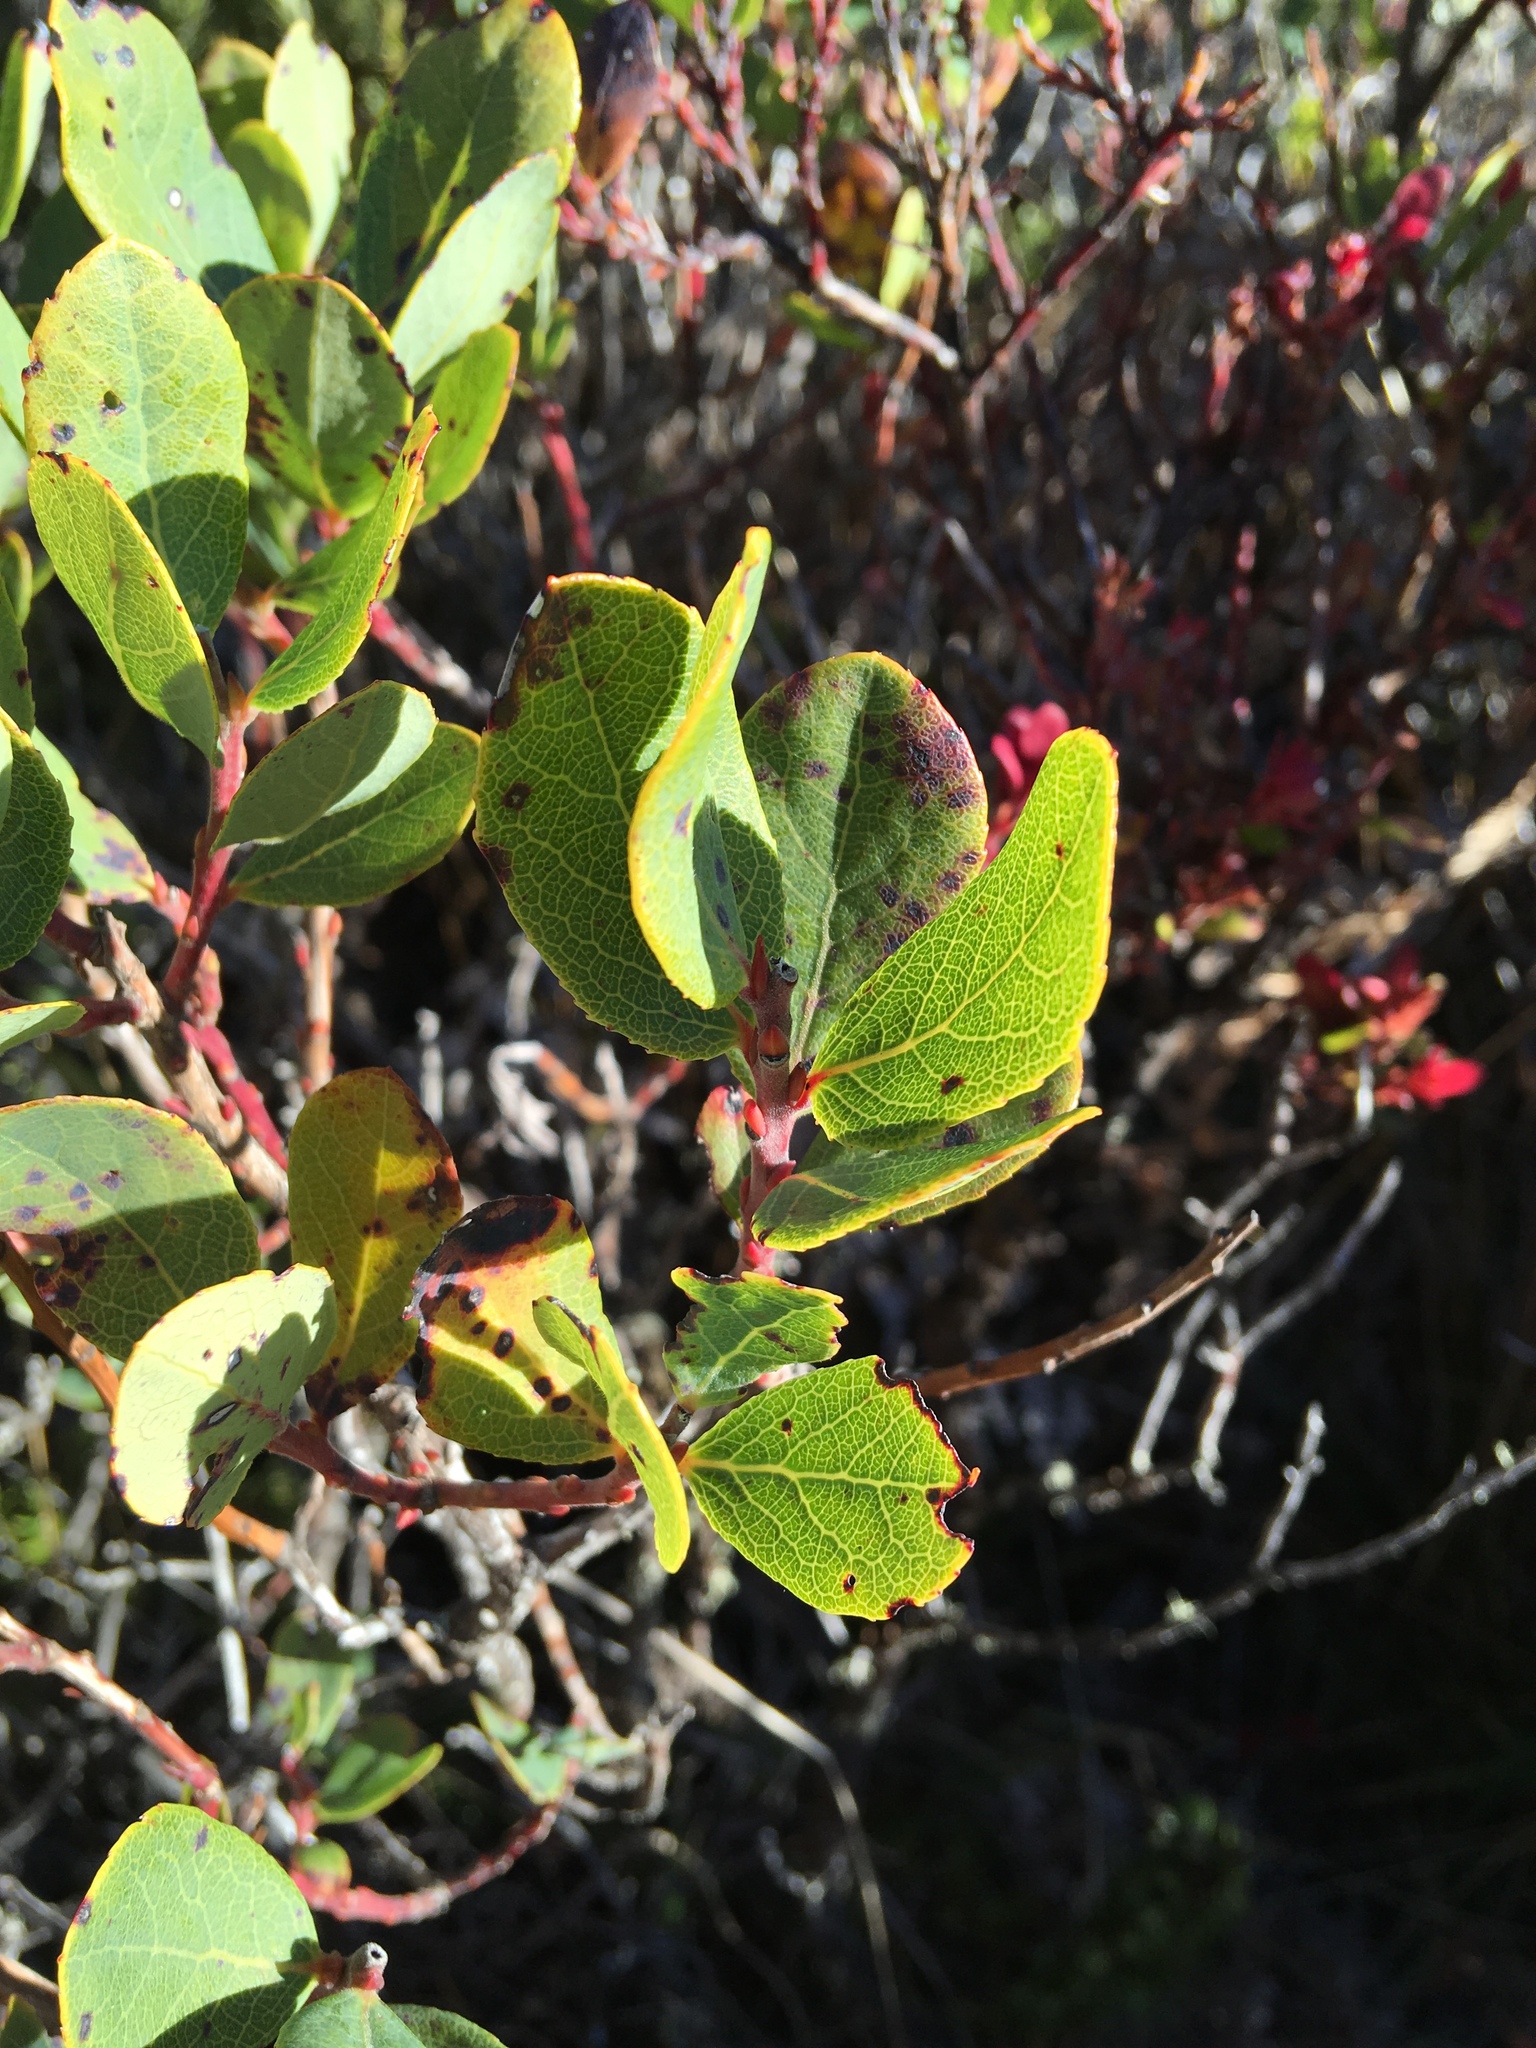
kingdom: Plantae
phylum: Tracheophyta
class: Magnoliopsida
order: Ericales
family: Ericaceae
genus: Vaccinium
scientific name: Vaccinium reticulatum
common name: Ohelo
